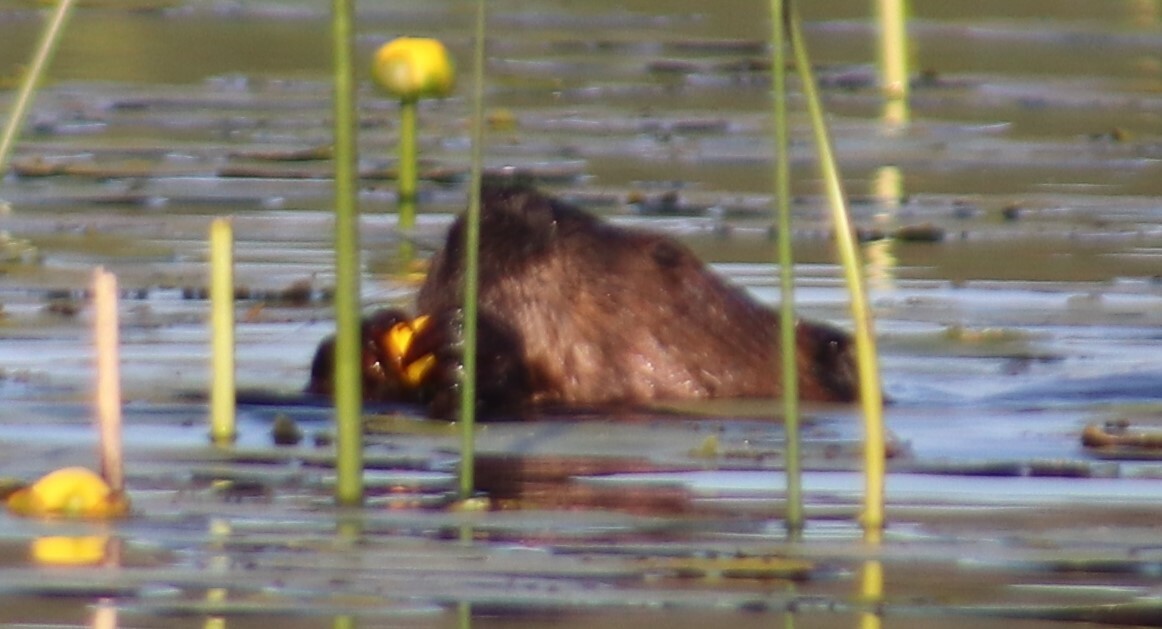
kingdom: Animalia
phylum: Chordata
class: Mammalia
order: Rodentia
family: Castoridae
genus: Castor
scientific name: Castor canadensis
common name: American beaver
